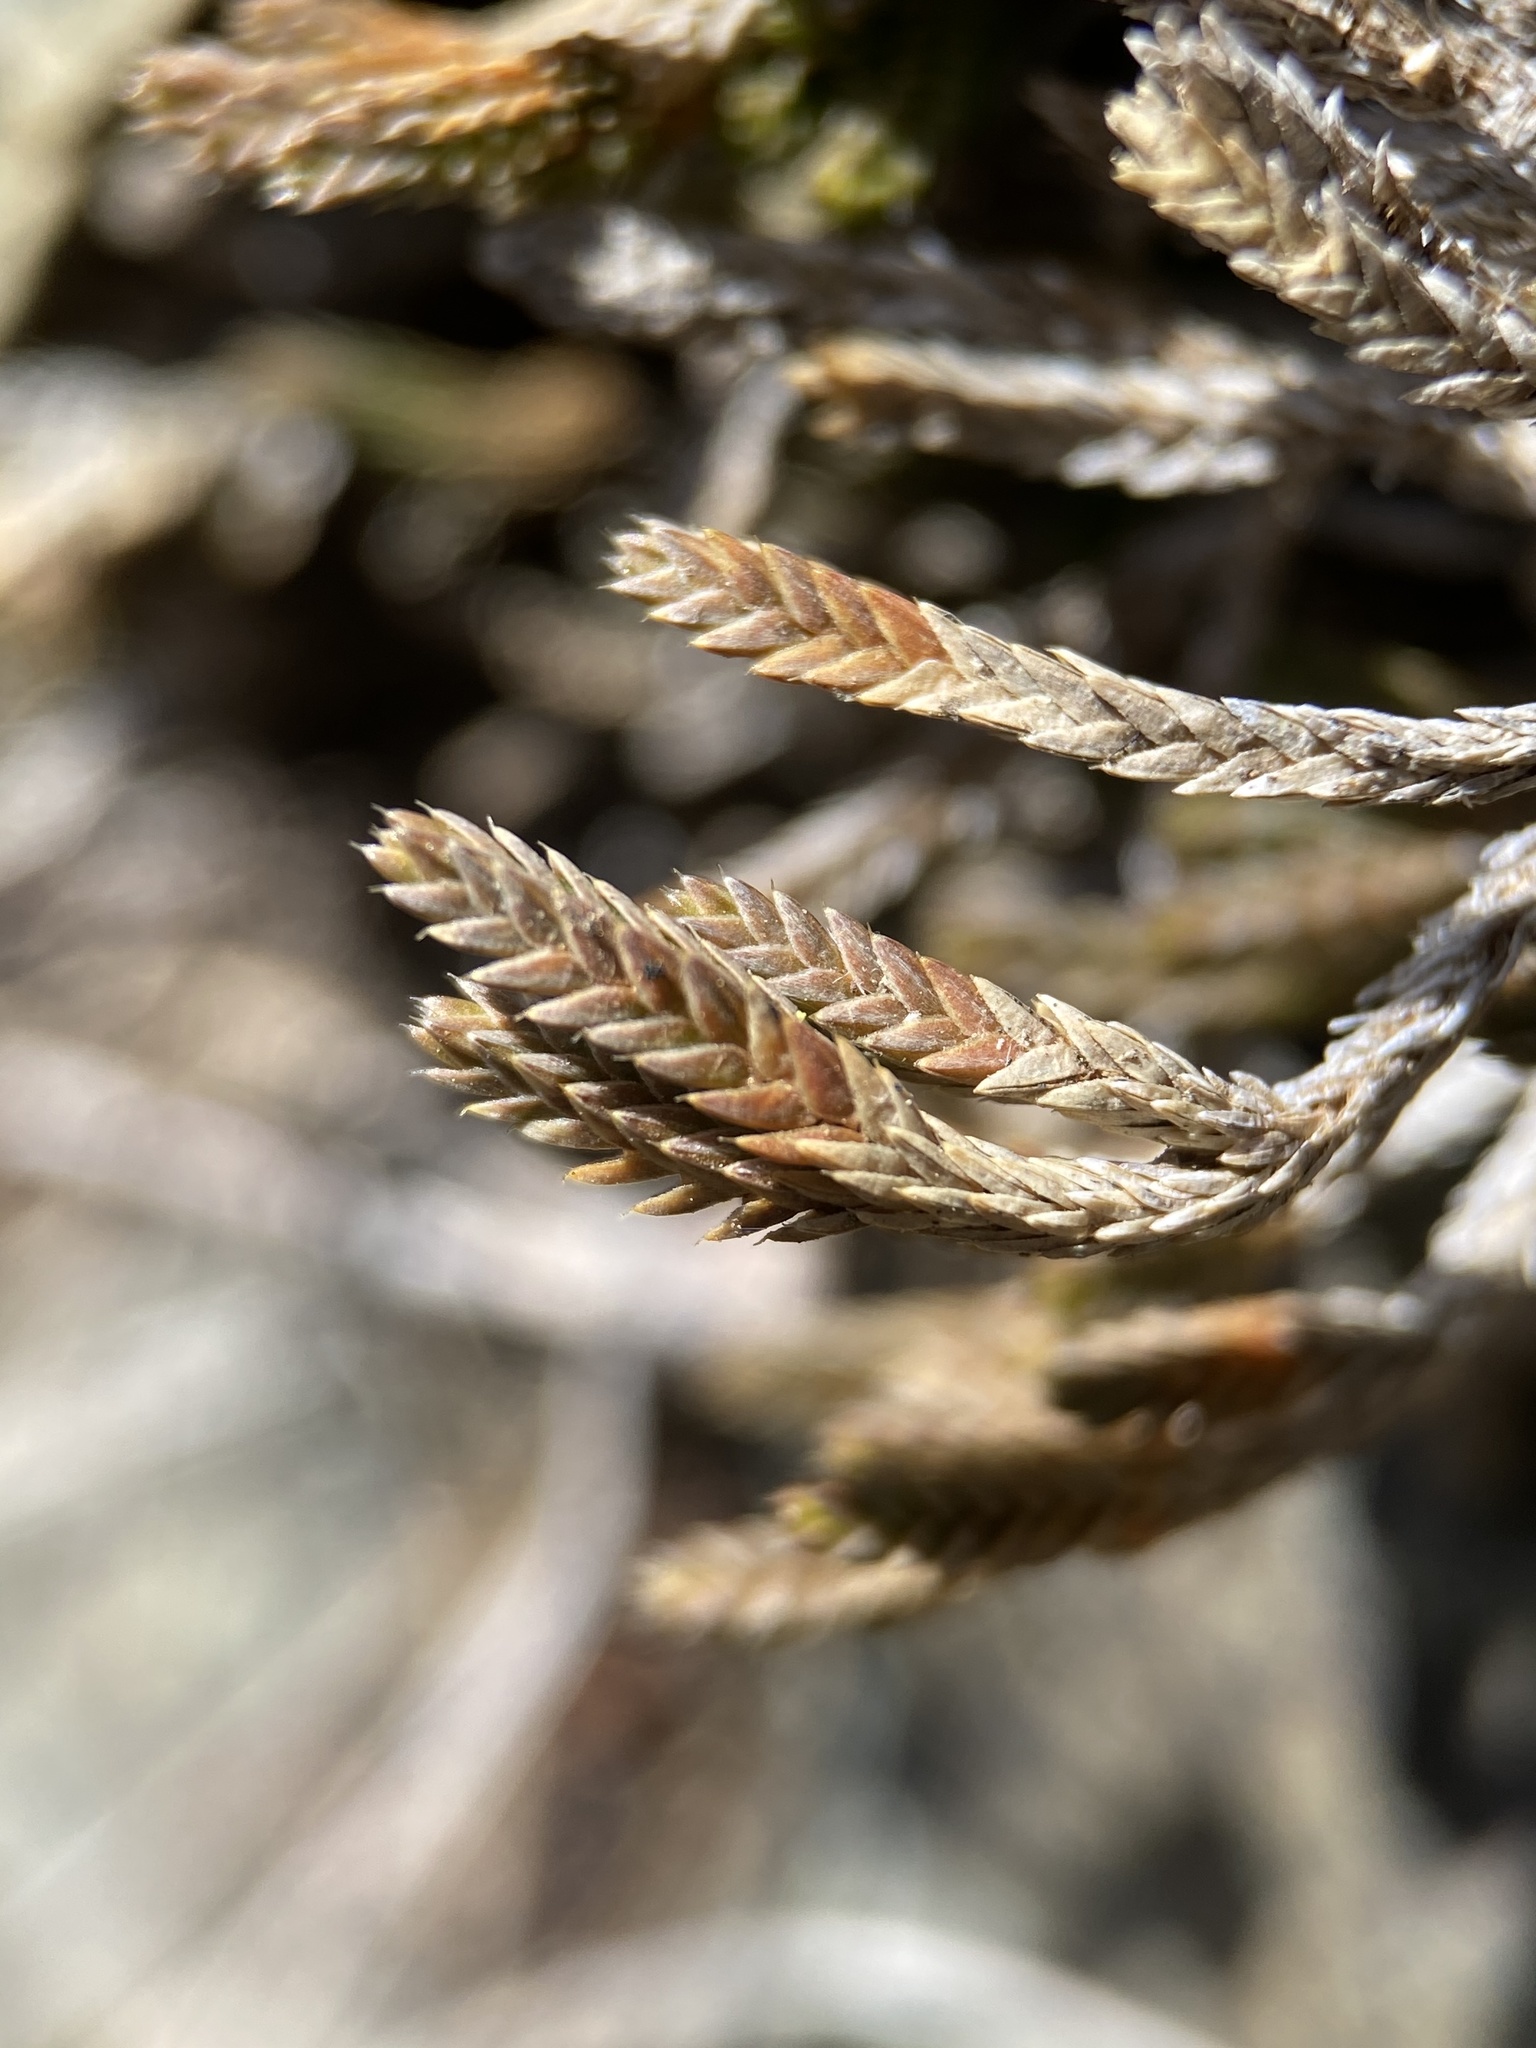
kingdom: Plantae
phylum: Tracheophyta
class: Lycopodiopsida
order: Selaginellales
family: Selaginellaceae
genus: Selaginella
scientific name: Selaginella wallacei
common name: Wallace's selaginella
